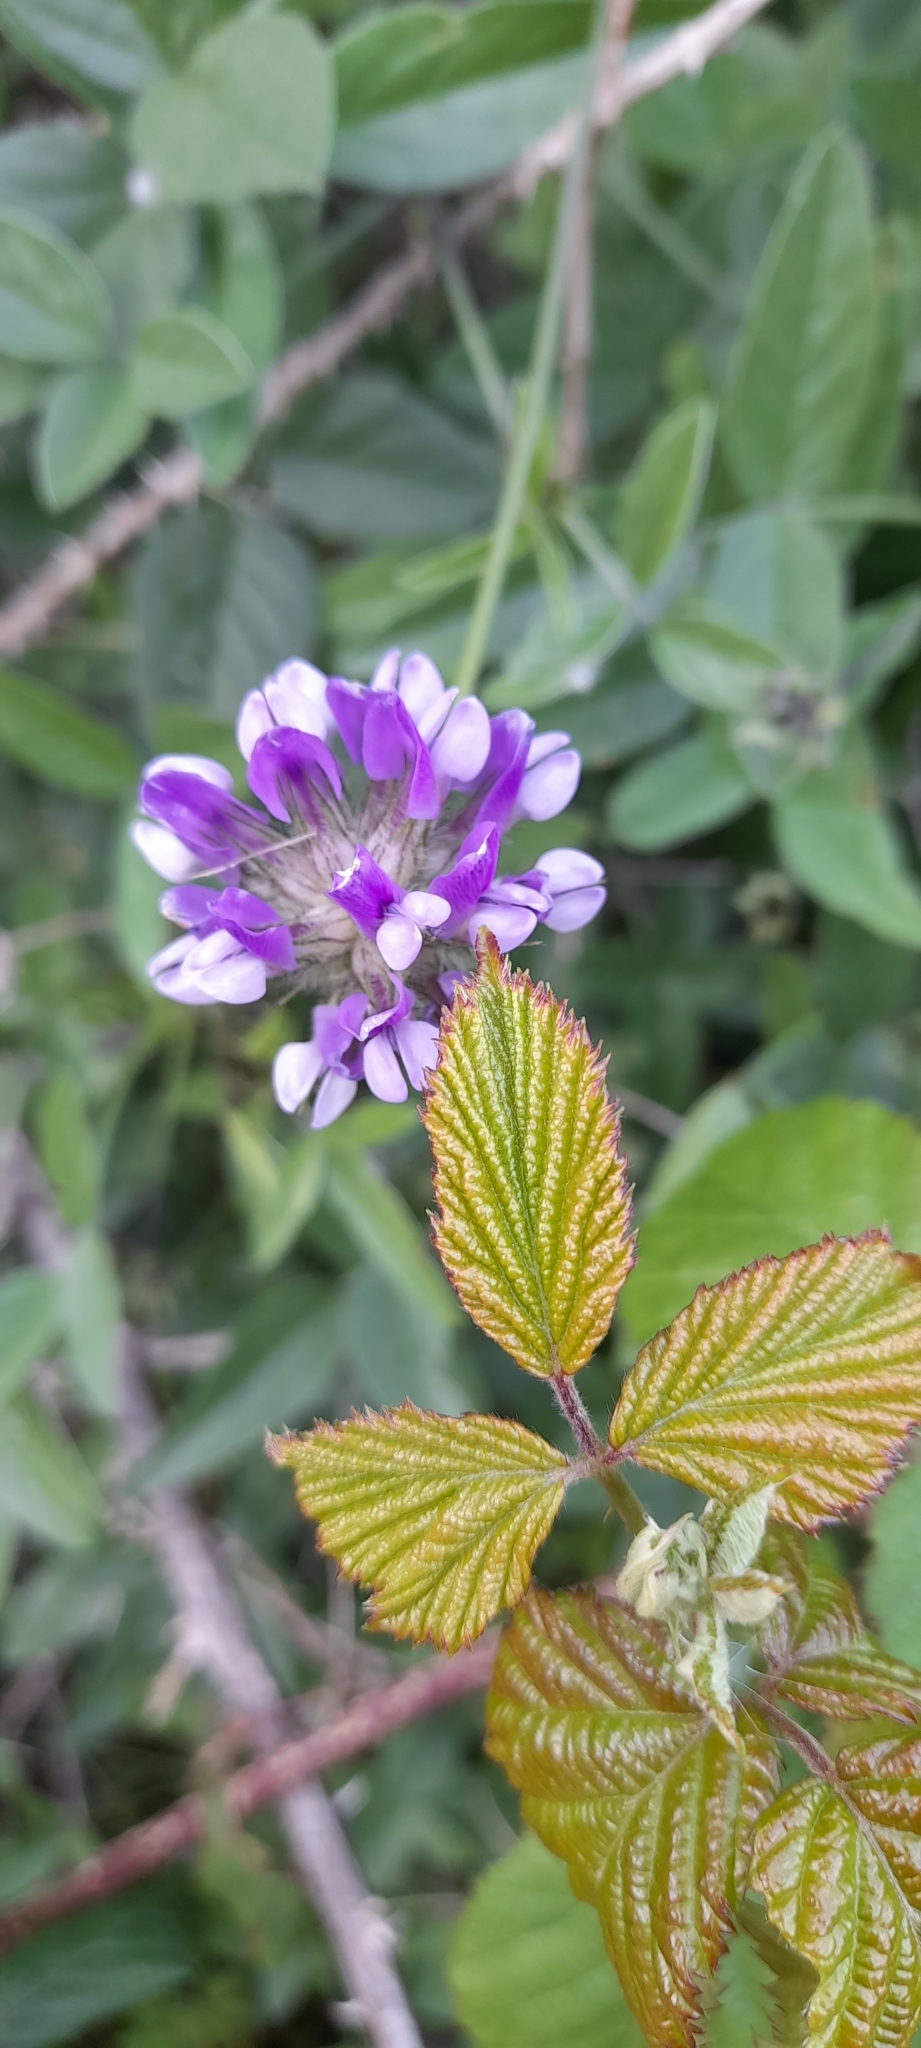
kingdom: Plantae
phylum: Tracheophyta
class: Magnoliopsida
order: Fabales
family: Fabaceae
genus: Bituminaria
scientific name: Bituminaria bituminosa
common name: Arabian pea
